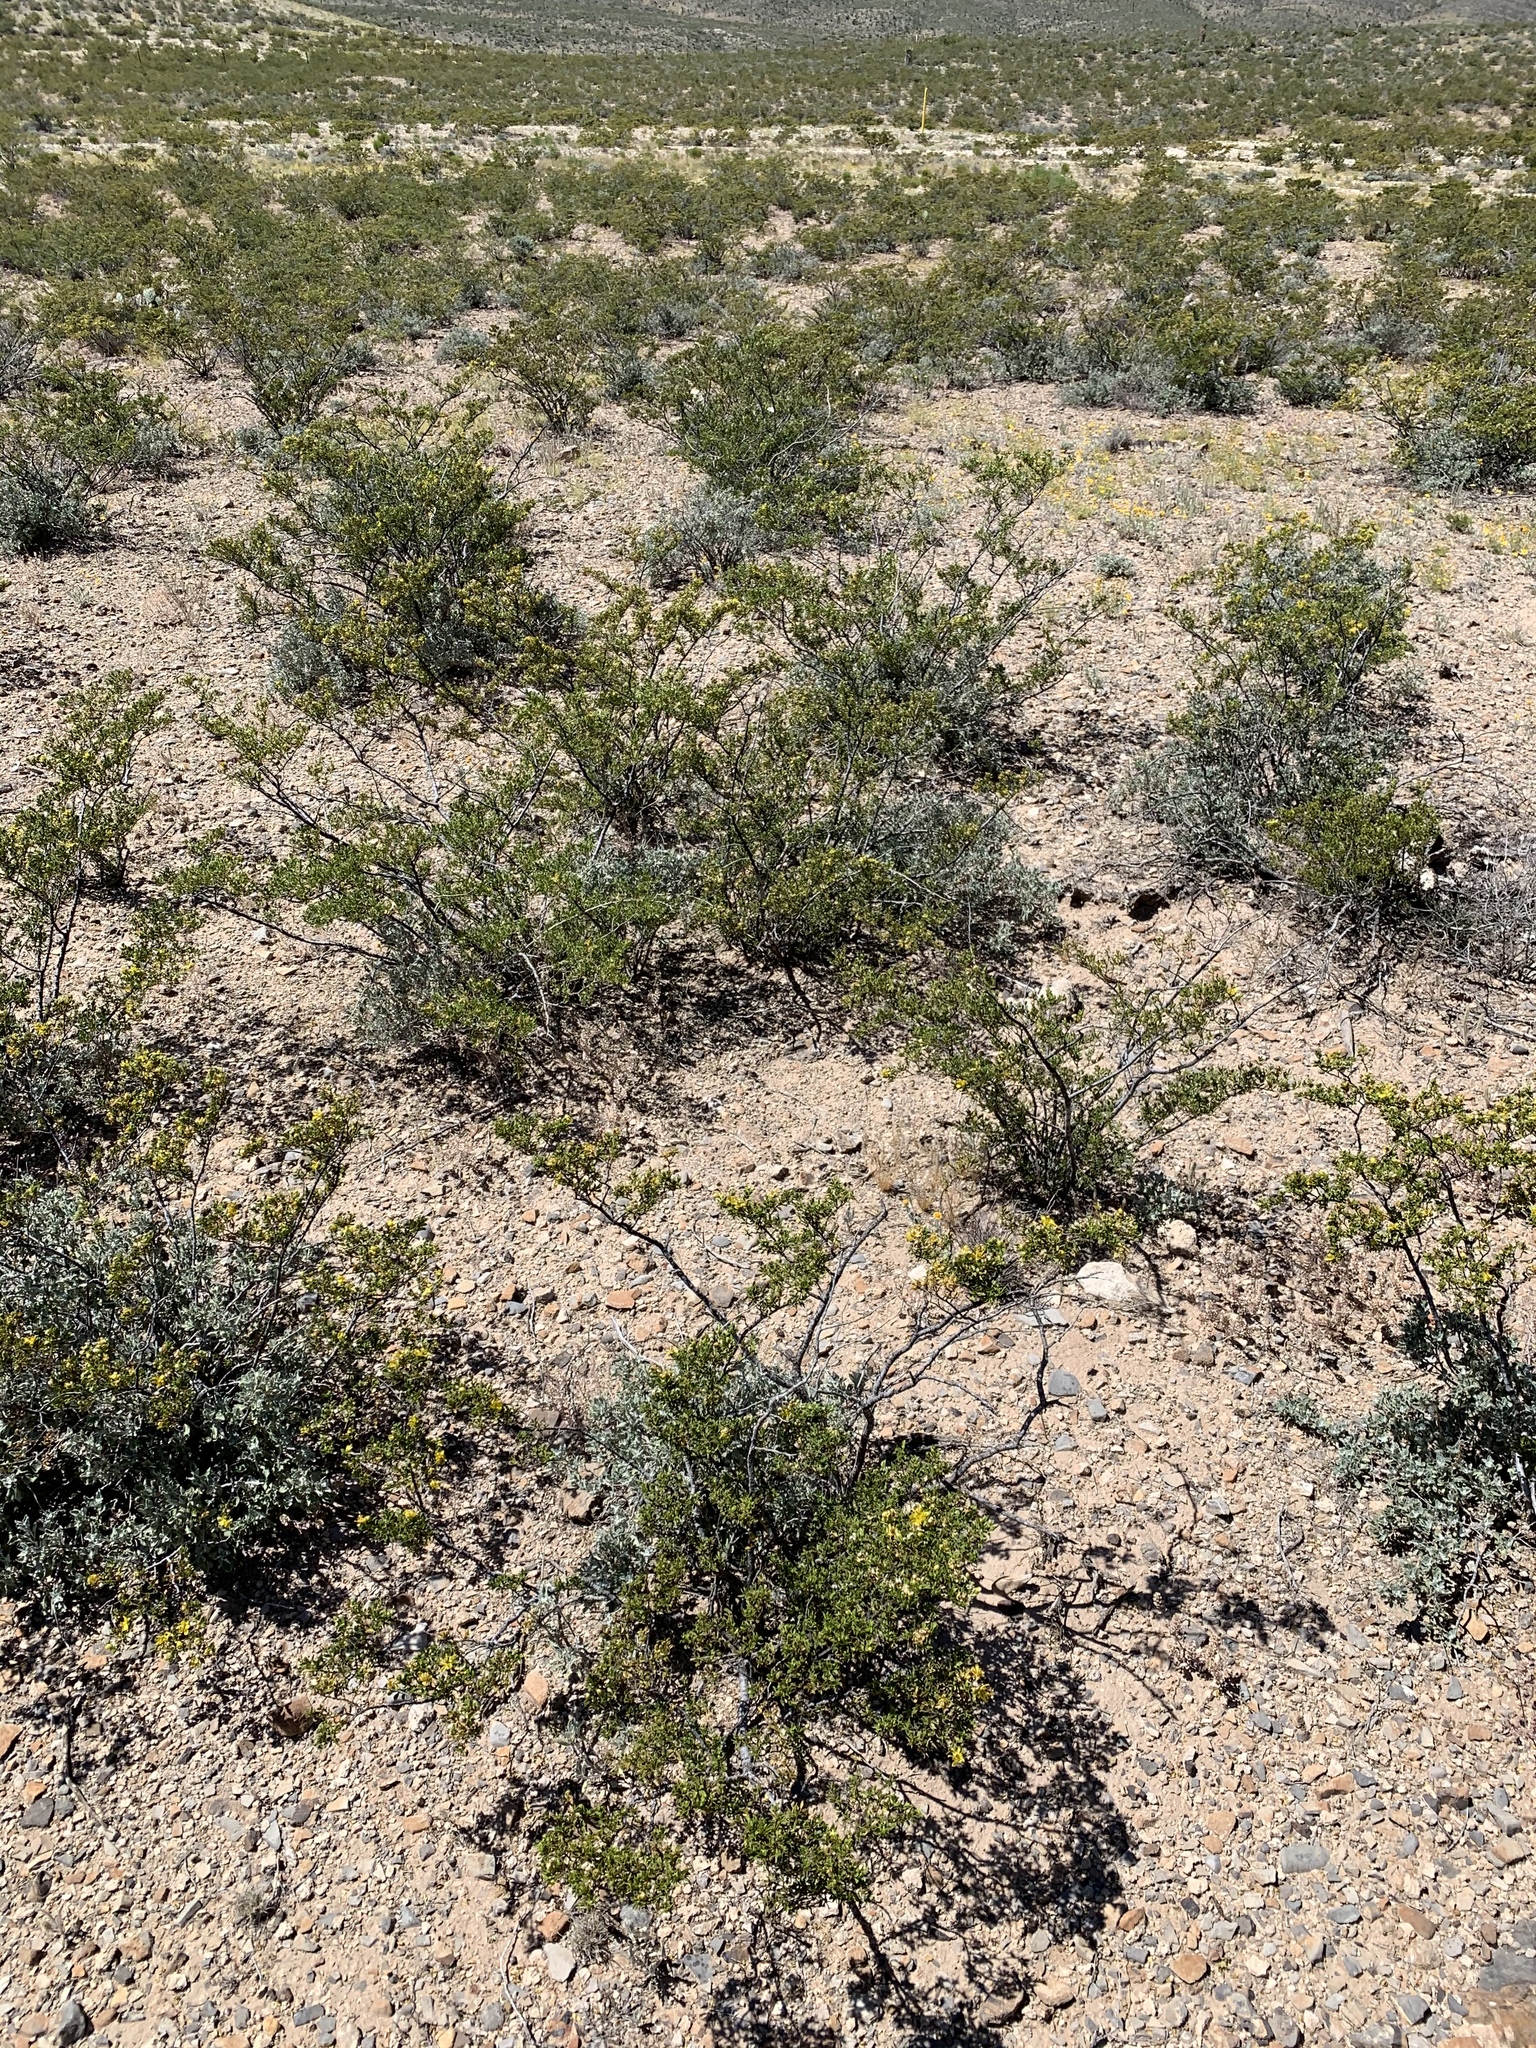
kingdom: Plantae
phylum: Tracheophyta
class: Magnoliopsida
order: Zygophyllales
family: Zygophyllaceae
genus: Larrea
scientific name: Larrea tridentata
